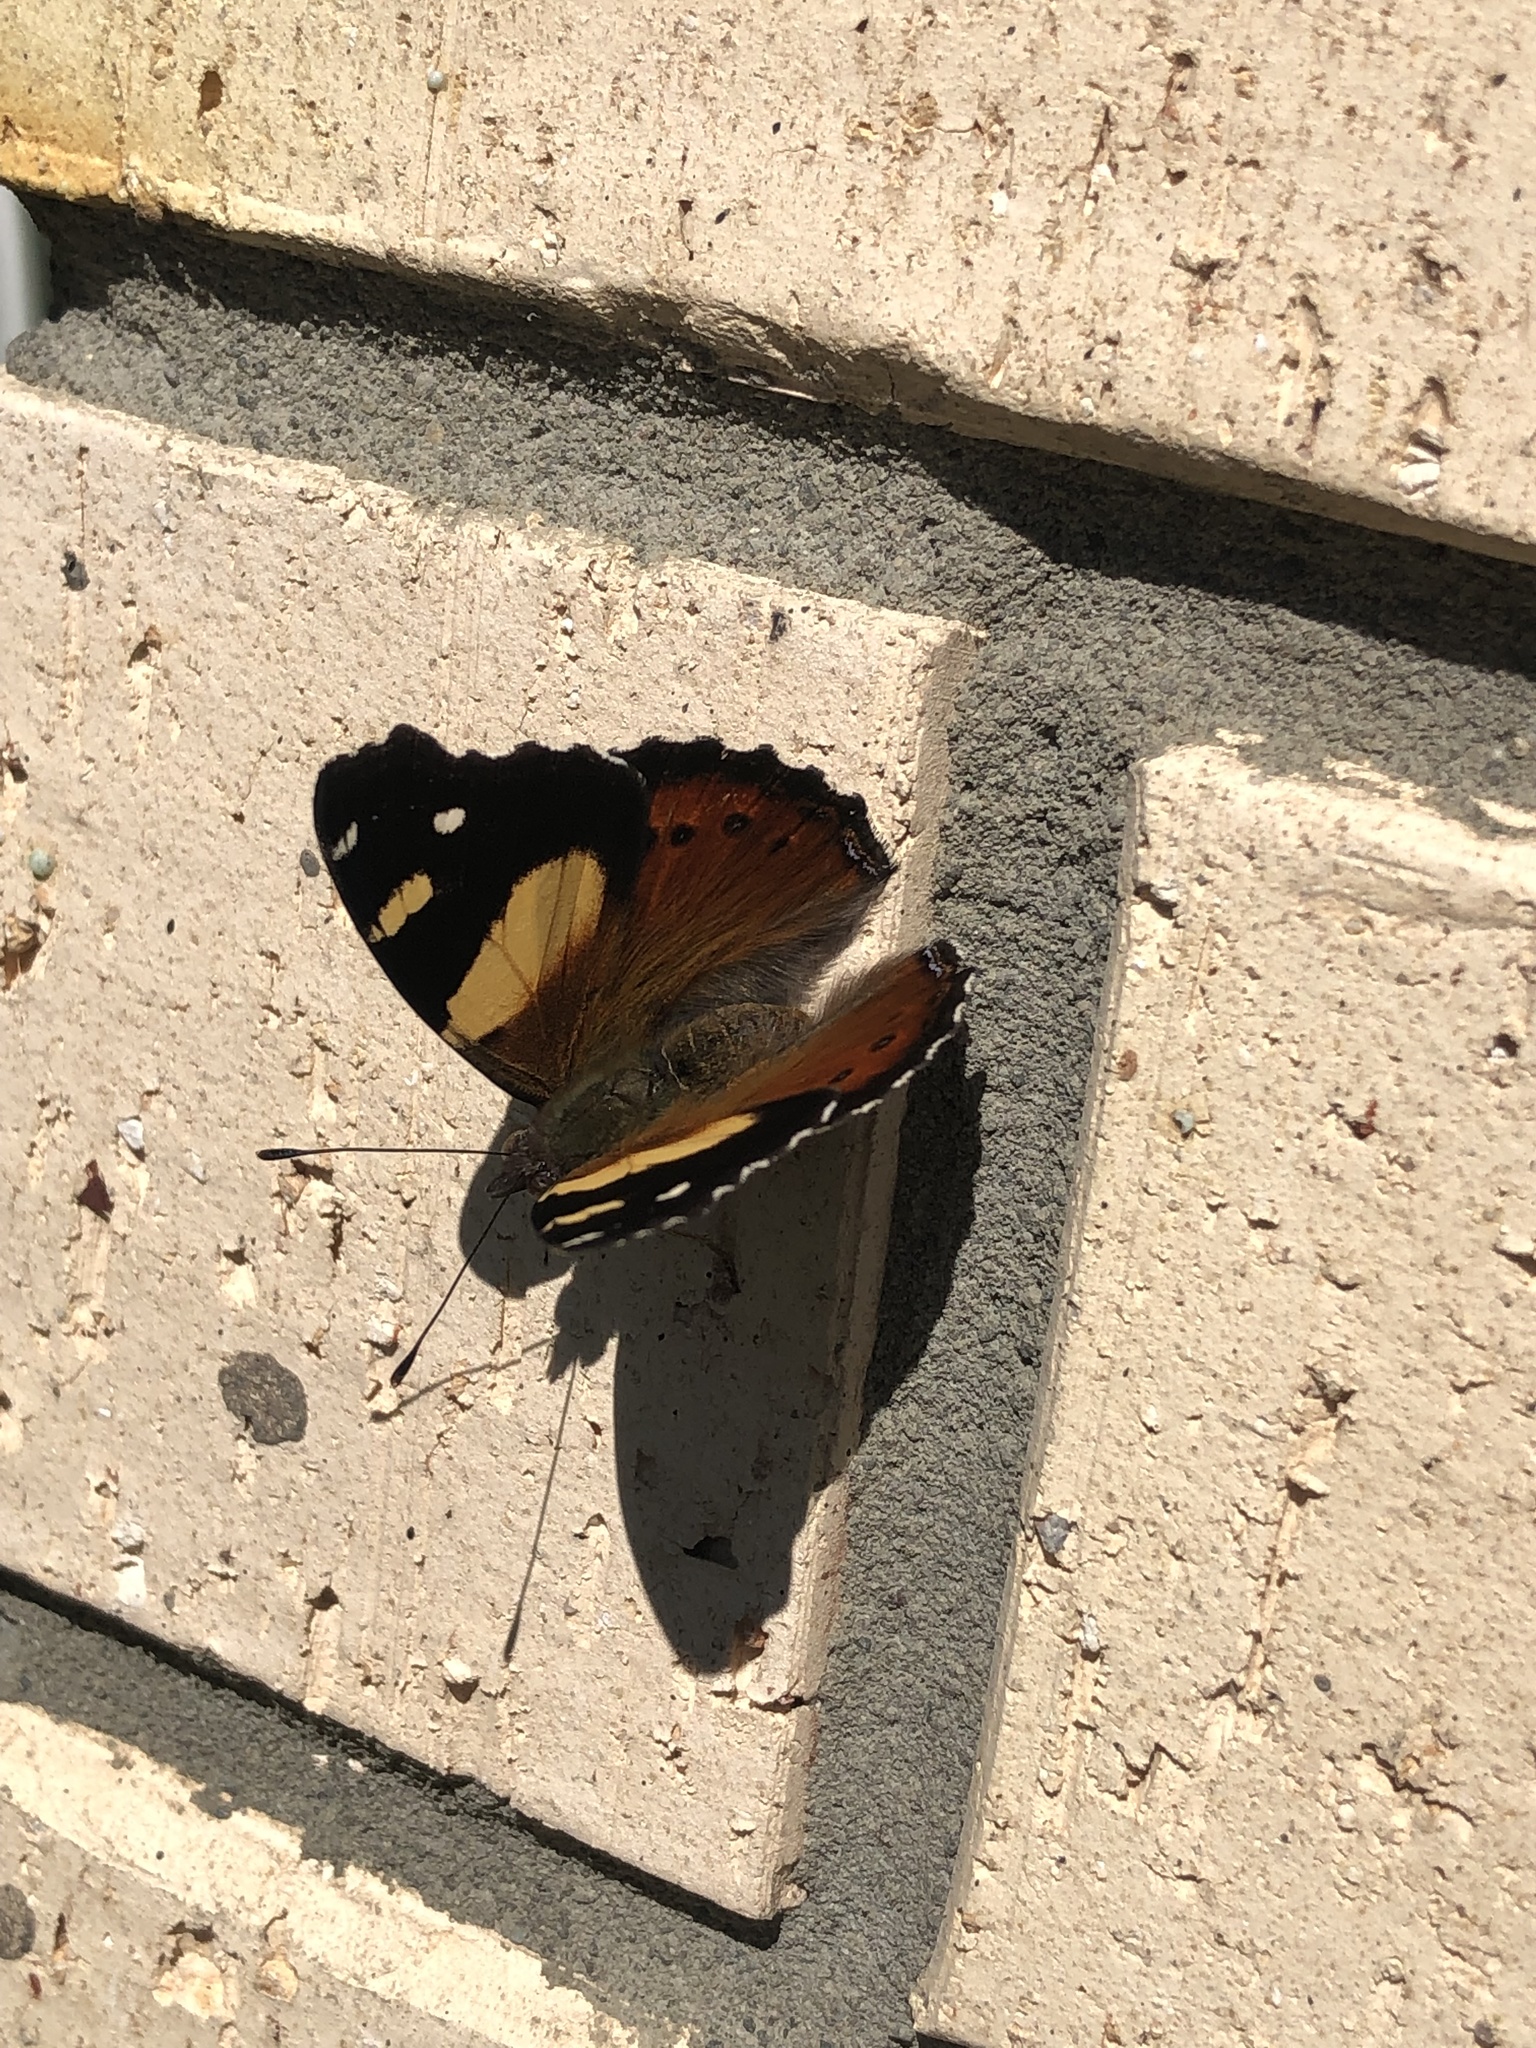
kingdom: Animalia
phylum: Arthropoda
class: Insecta
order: Lepidoptera
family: Nymphalidae
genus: Vanessa
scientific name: Vanessa itea
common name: Yellow admiral
